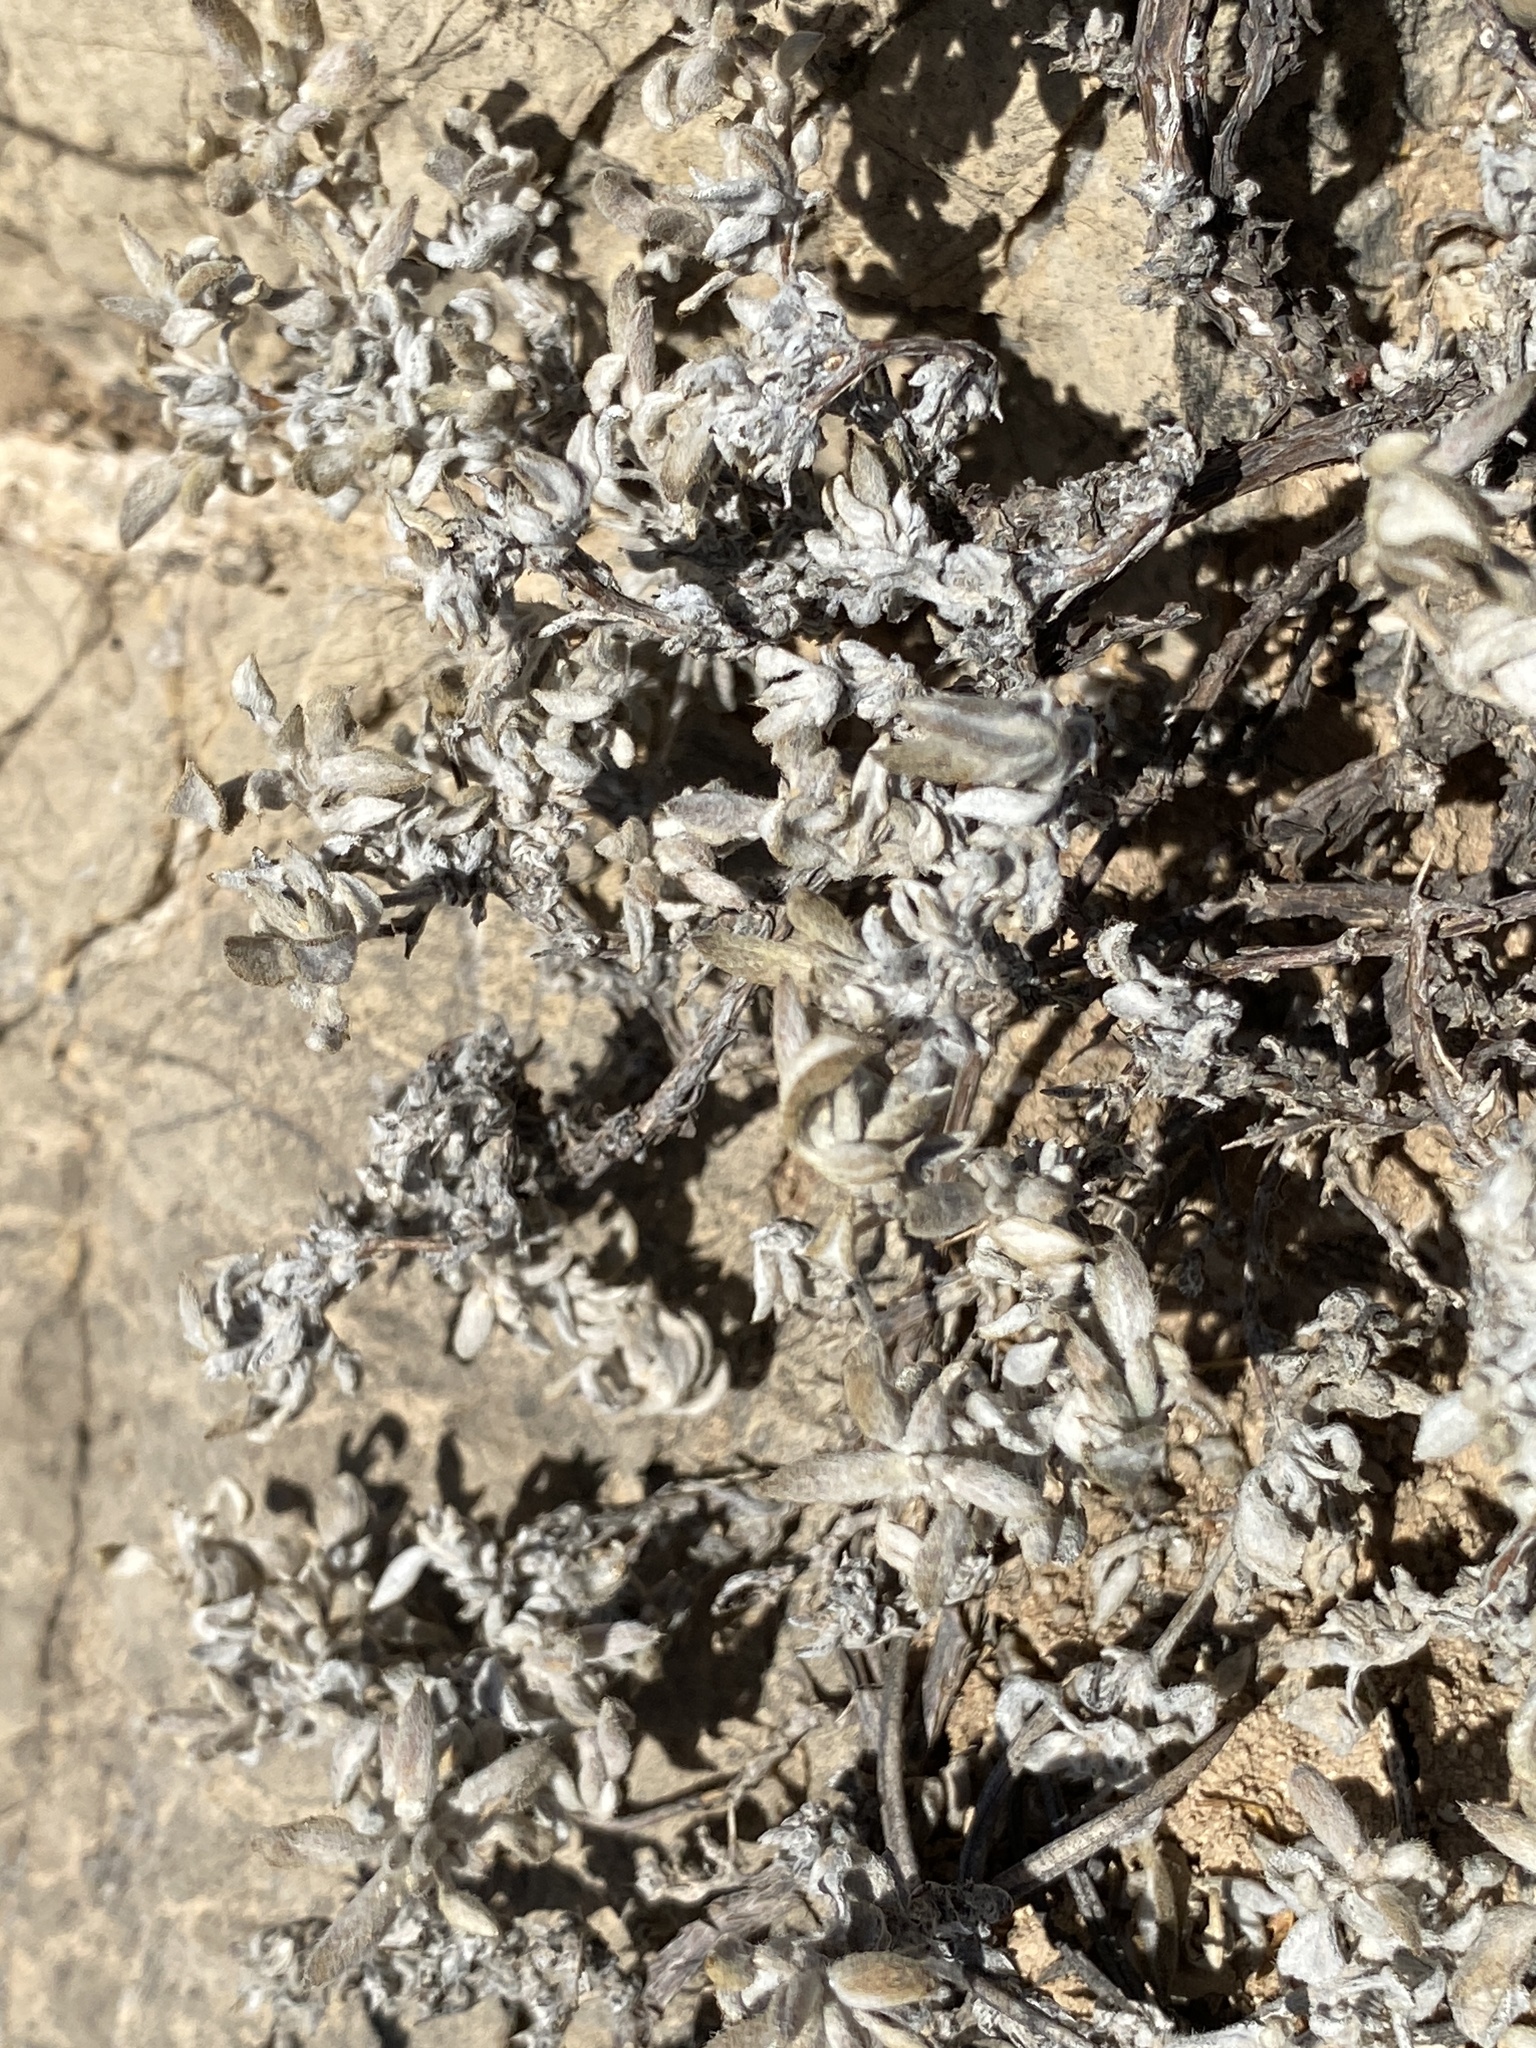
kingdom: Plantae
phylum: Tracheophyta
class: Magnoliopsida
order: Boraginales
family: Ehretiaceae
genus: Tiquilia
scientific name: Tiquilia canescens
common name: Hairy tiquilia
